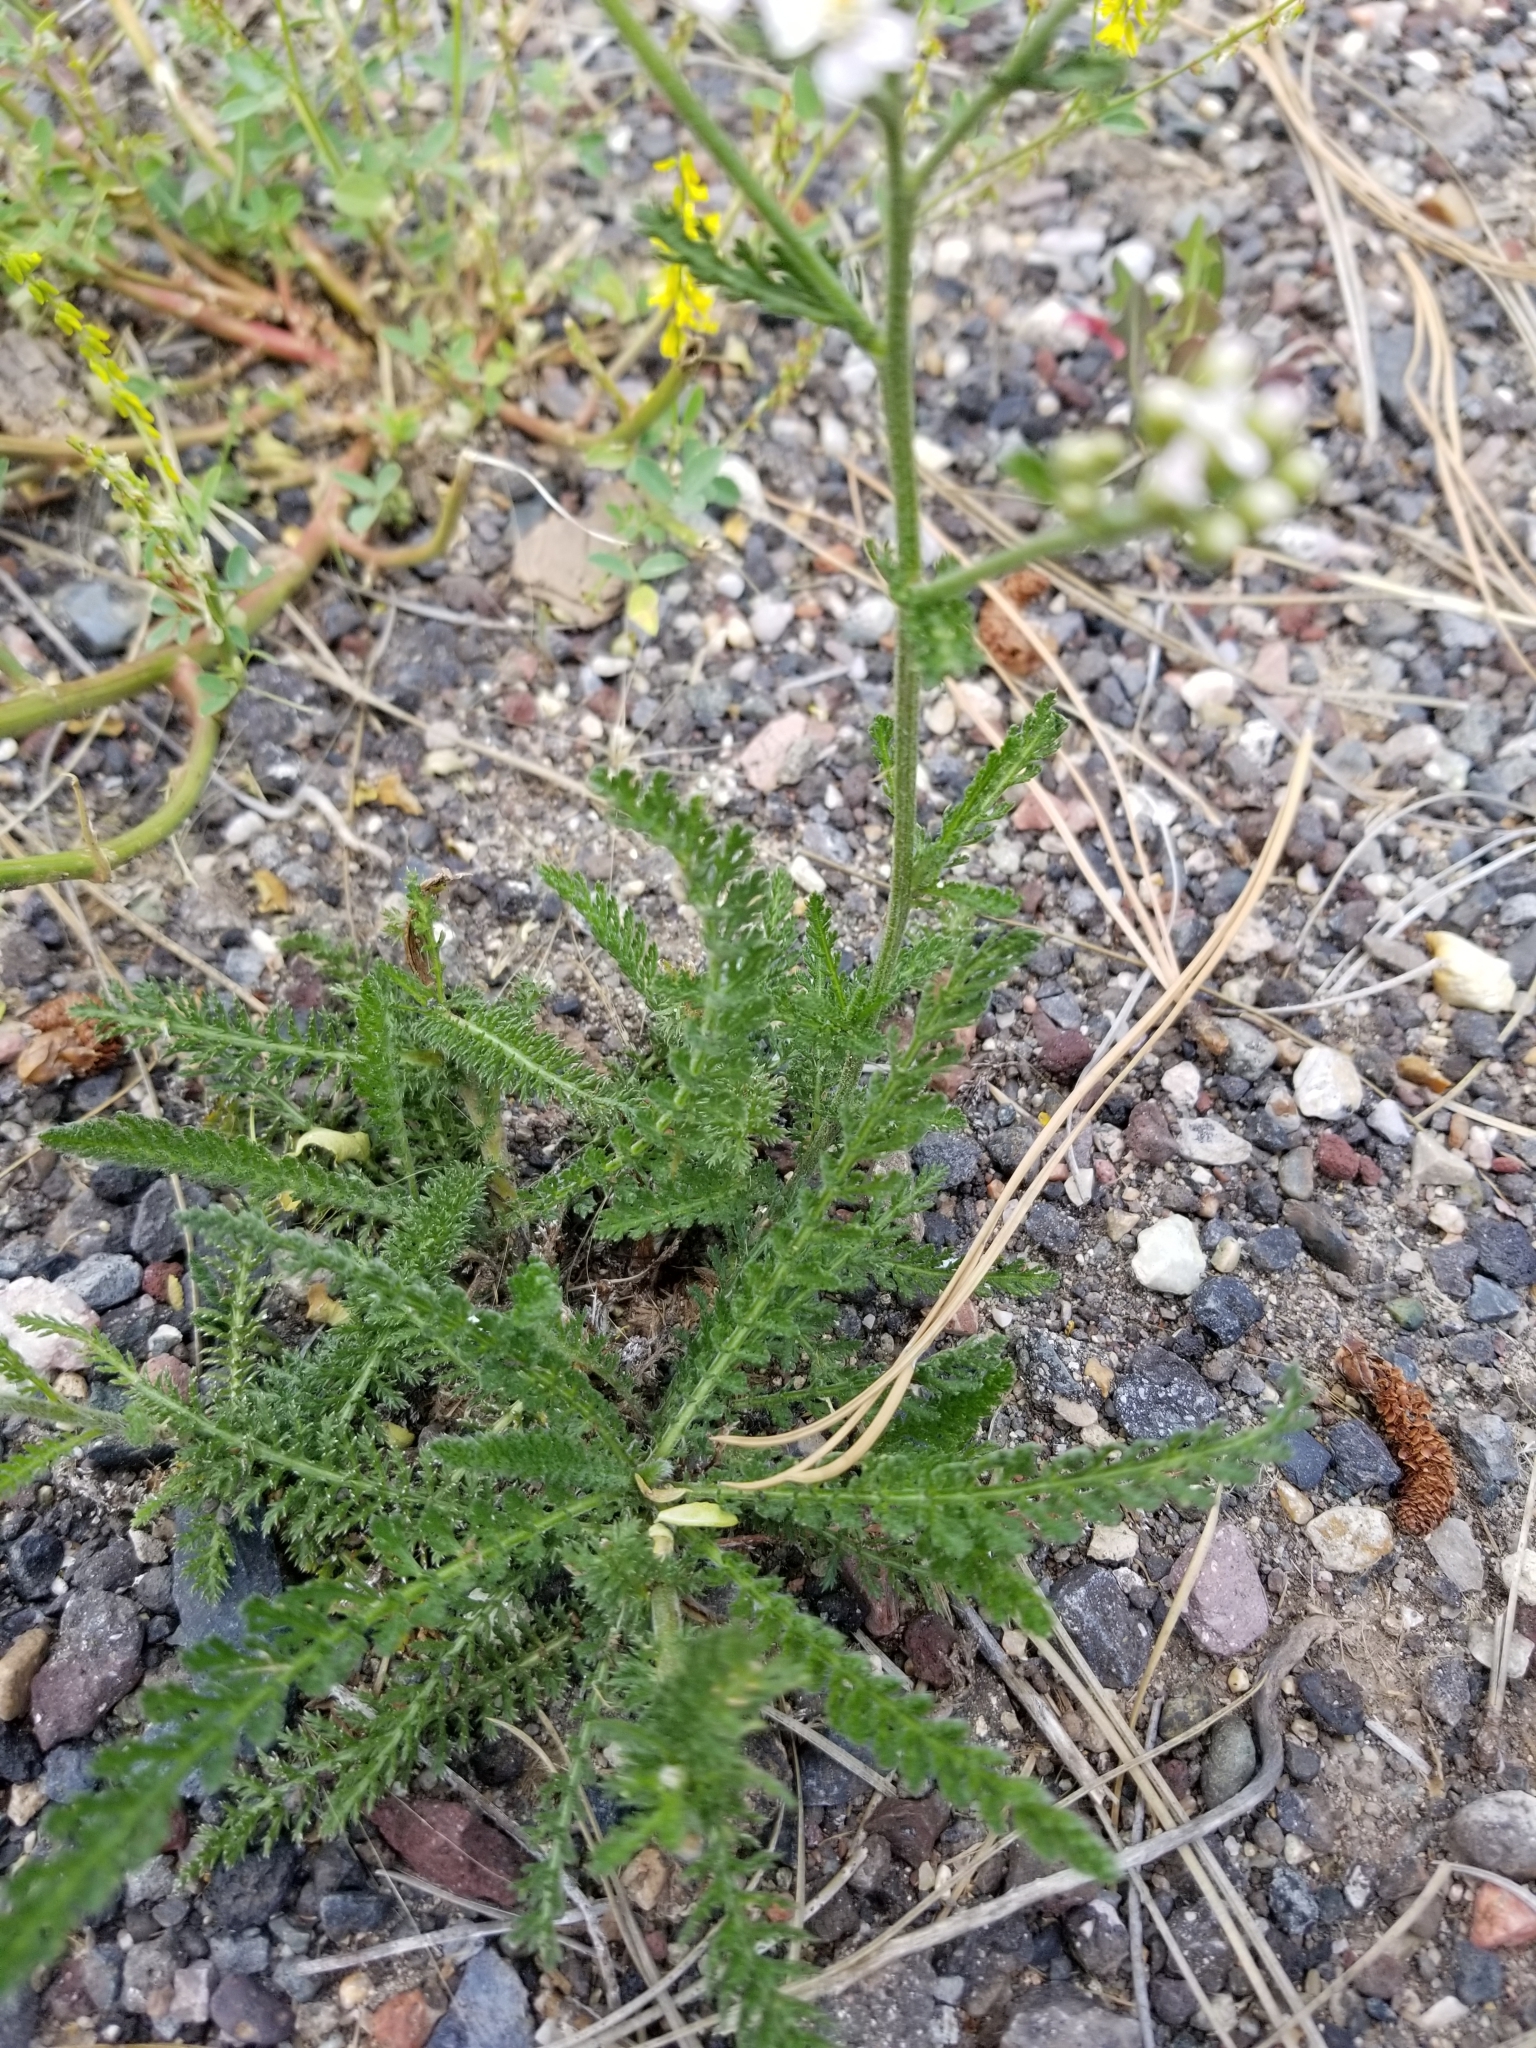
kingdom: Plantae
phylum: Tracheophyta
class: Magnoliopsida
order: Asterales
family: Asteraceae
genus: Achillea
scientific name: Achillea millefolium
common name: Yarrow
